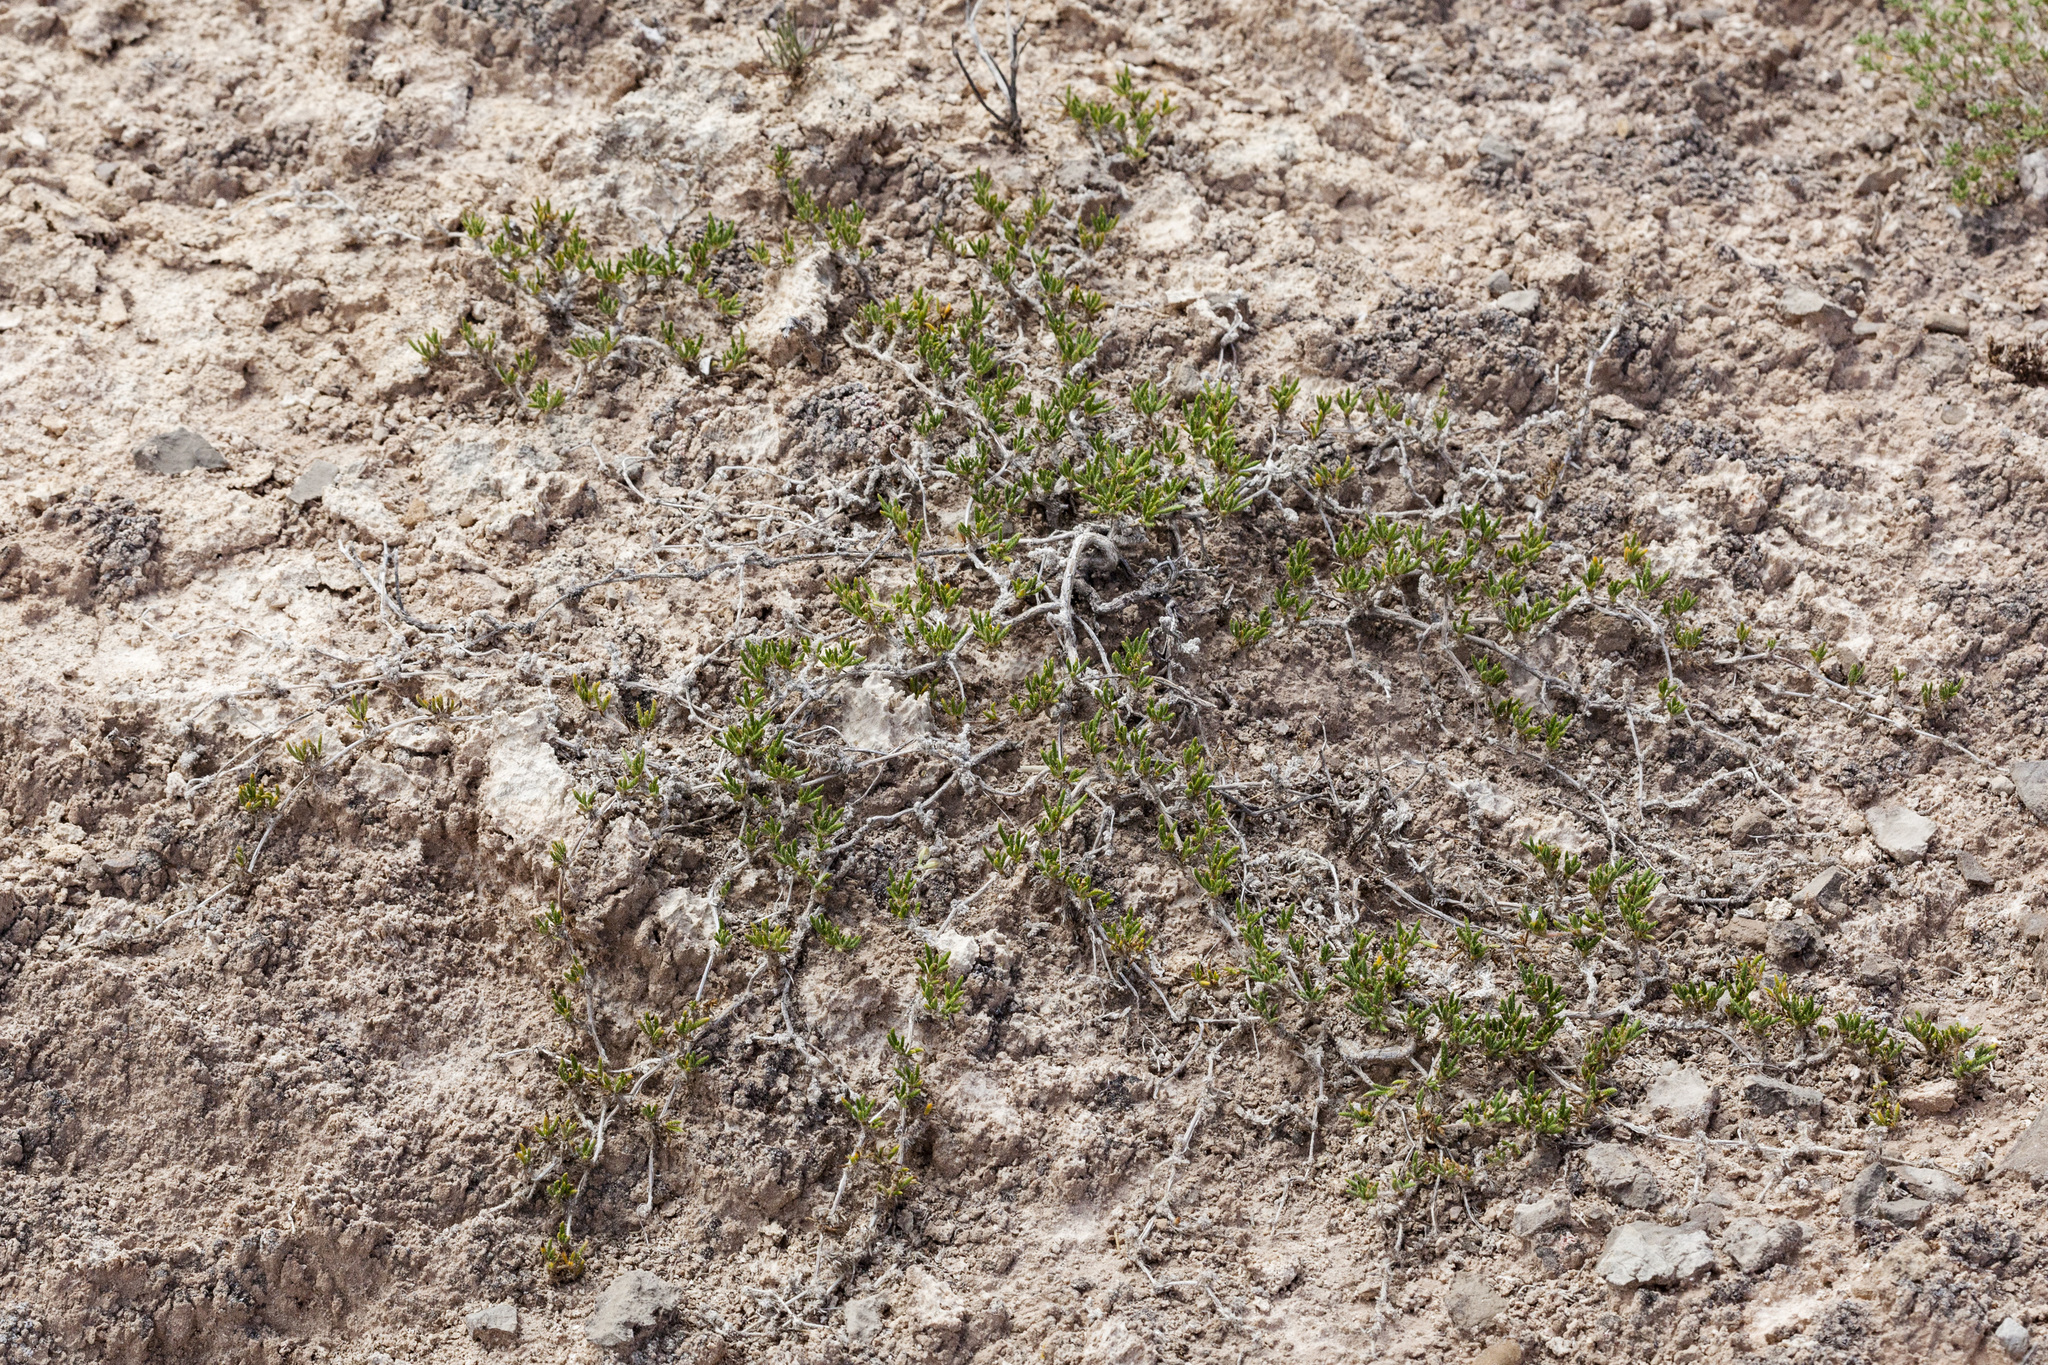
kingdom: Plantae
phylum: Tracheophyta
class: Magnoliopsida
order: Boraginales
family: Ehretiaceae
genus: Tiquilia
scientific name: Tiquilia hispidissima
